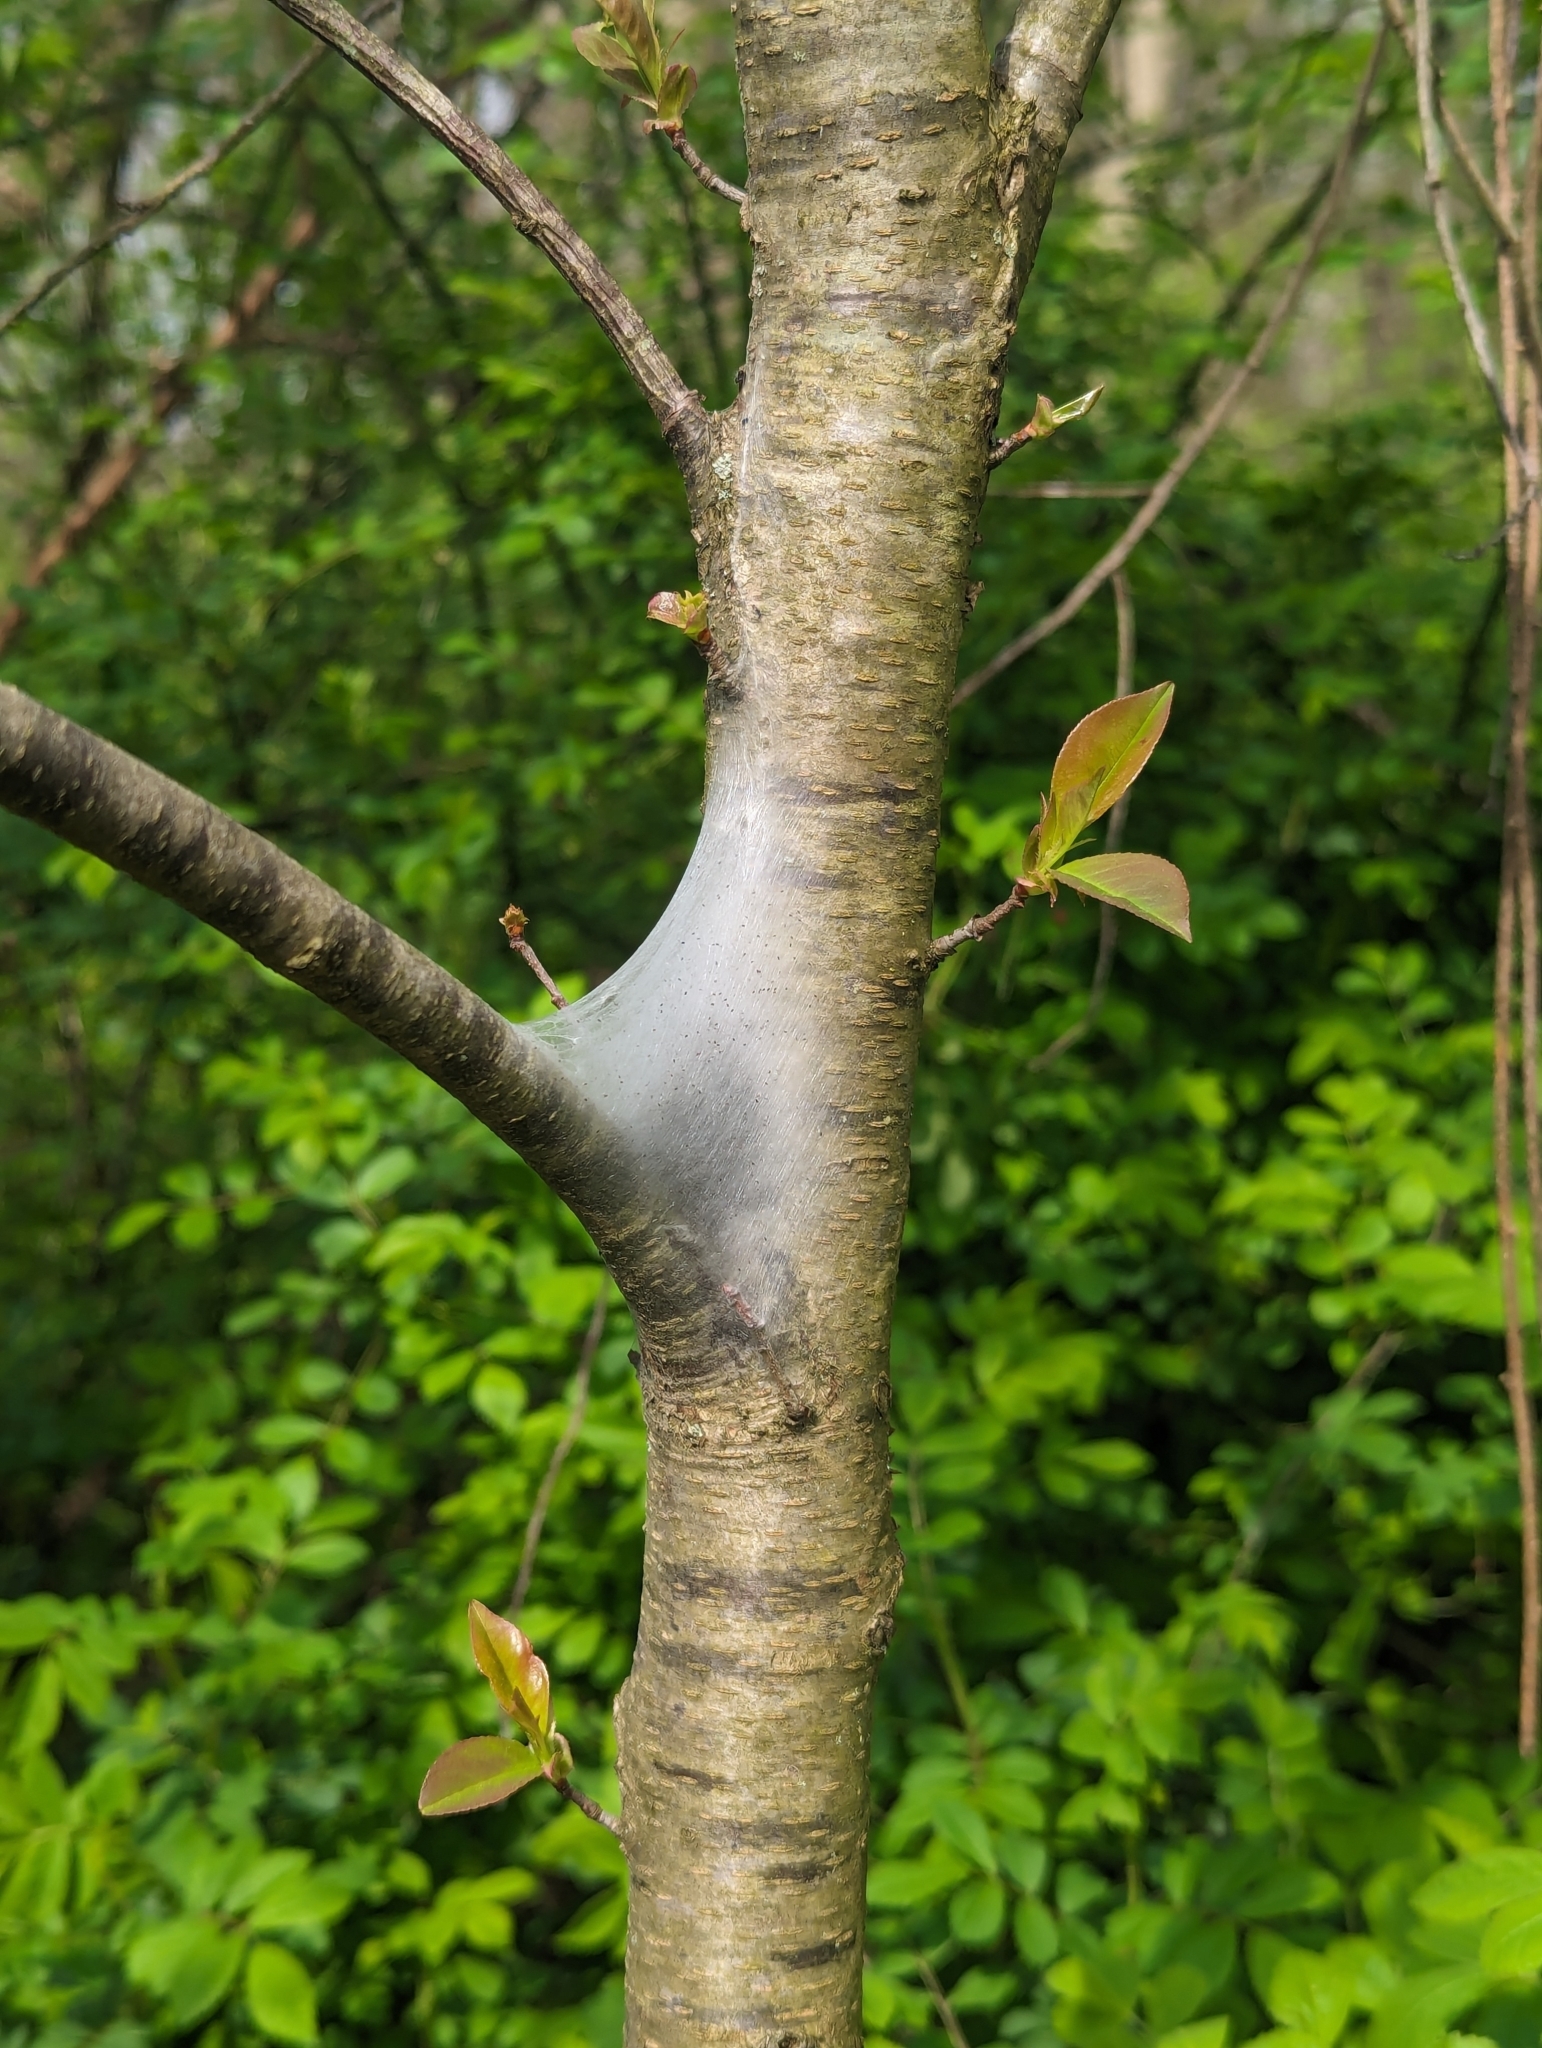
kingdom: Animalia
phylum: Arthropoda
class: Insecta
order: Lepidoptera
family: Lasiocampidae
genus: Malacosoma
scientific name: Malacosoma americana
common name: Eastern tent caterpillar moth
